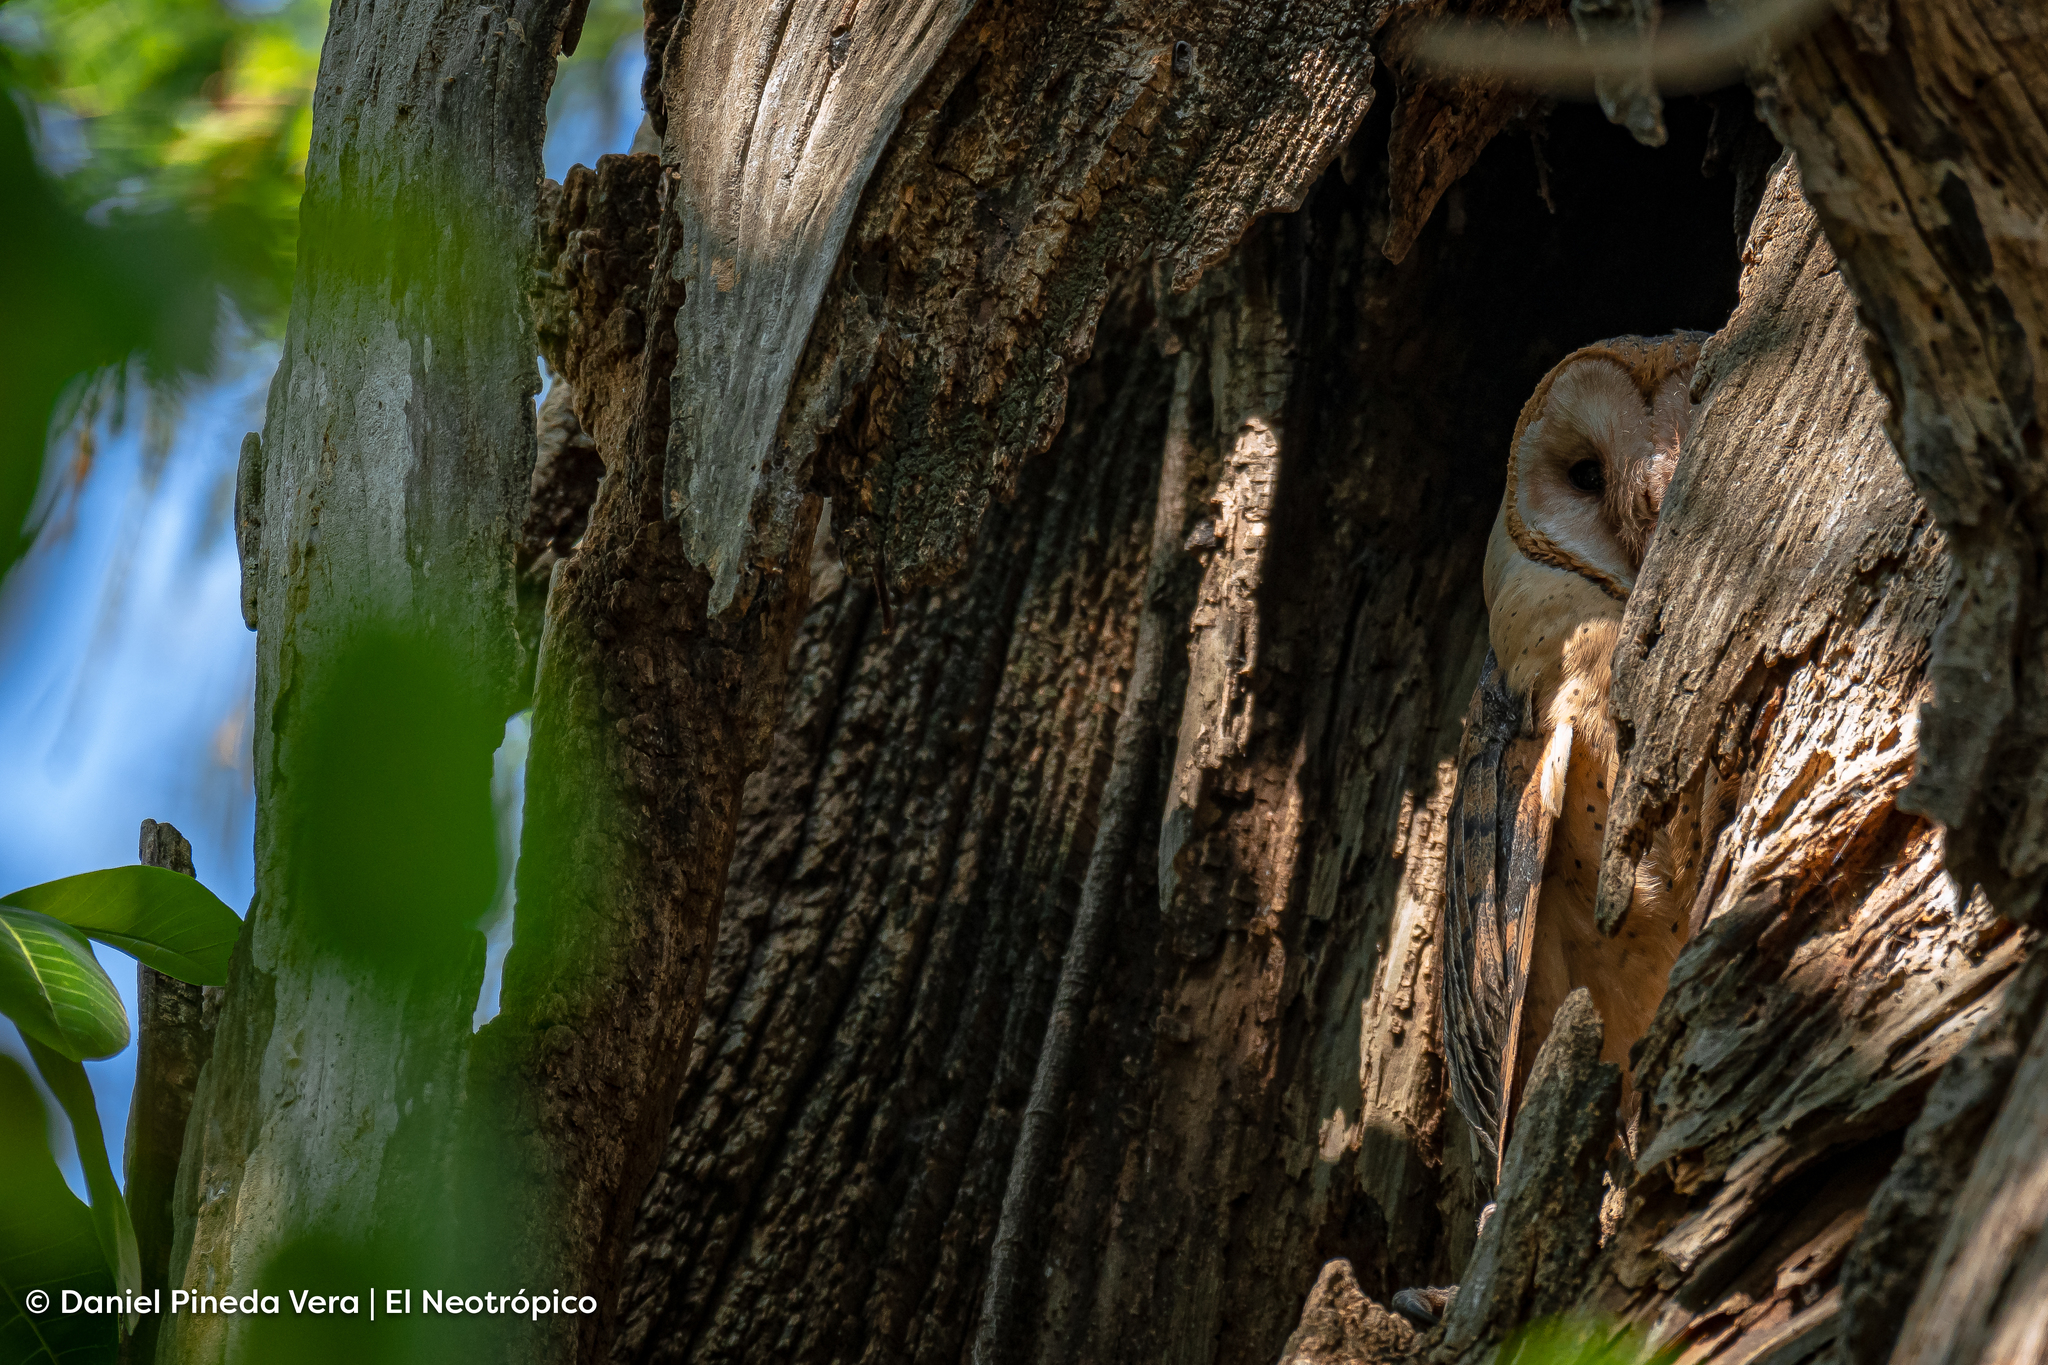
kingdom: Animalia
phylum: Chordata
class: Aves
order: Strigiformes
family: Tytonidae
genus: Tyto
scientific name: Tyto furcata
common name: American barn owl
